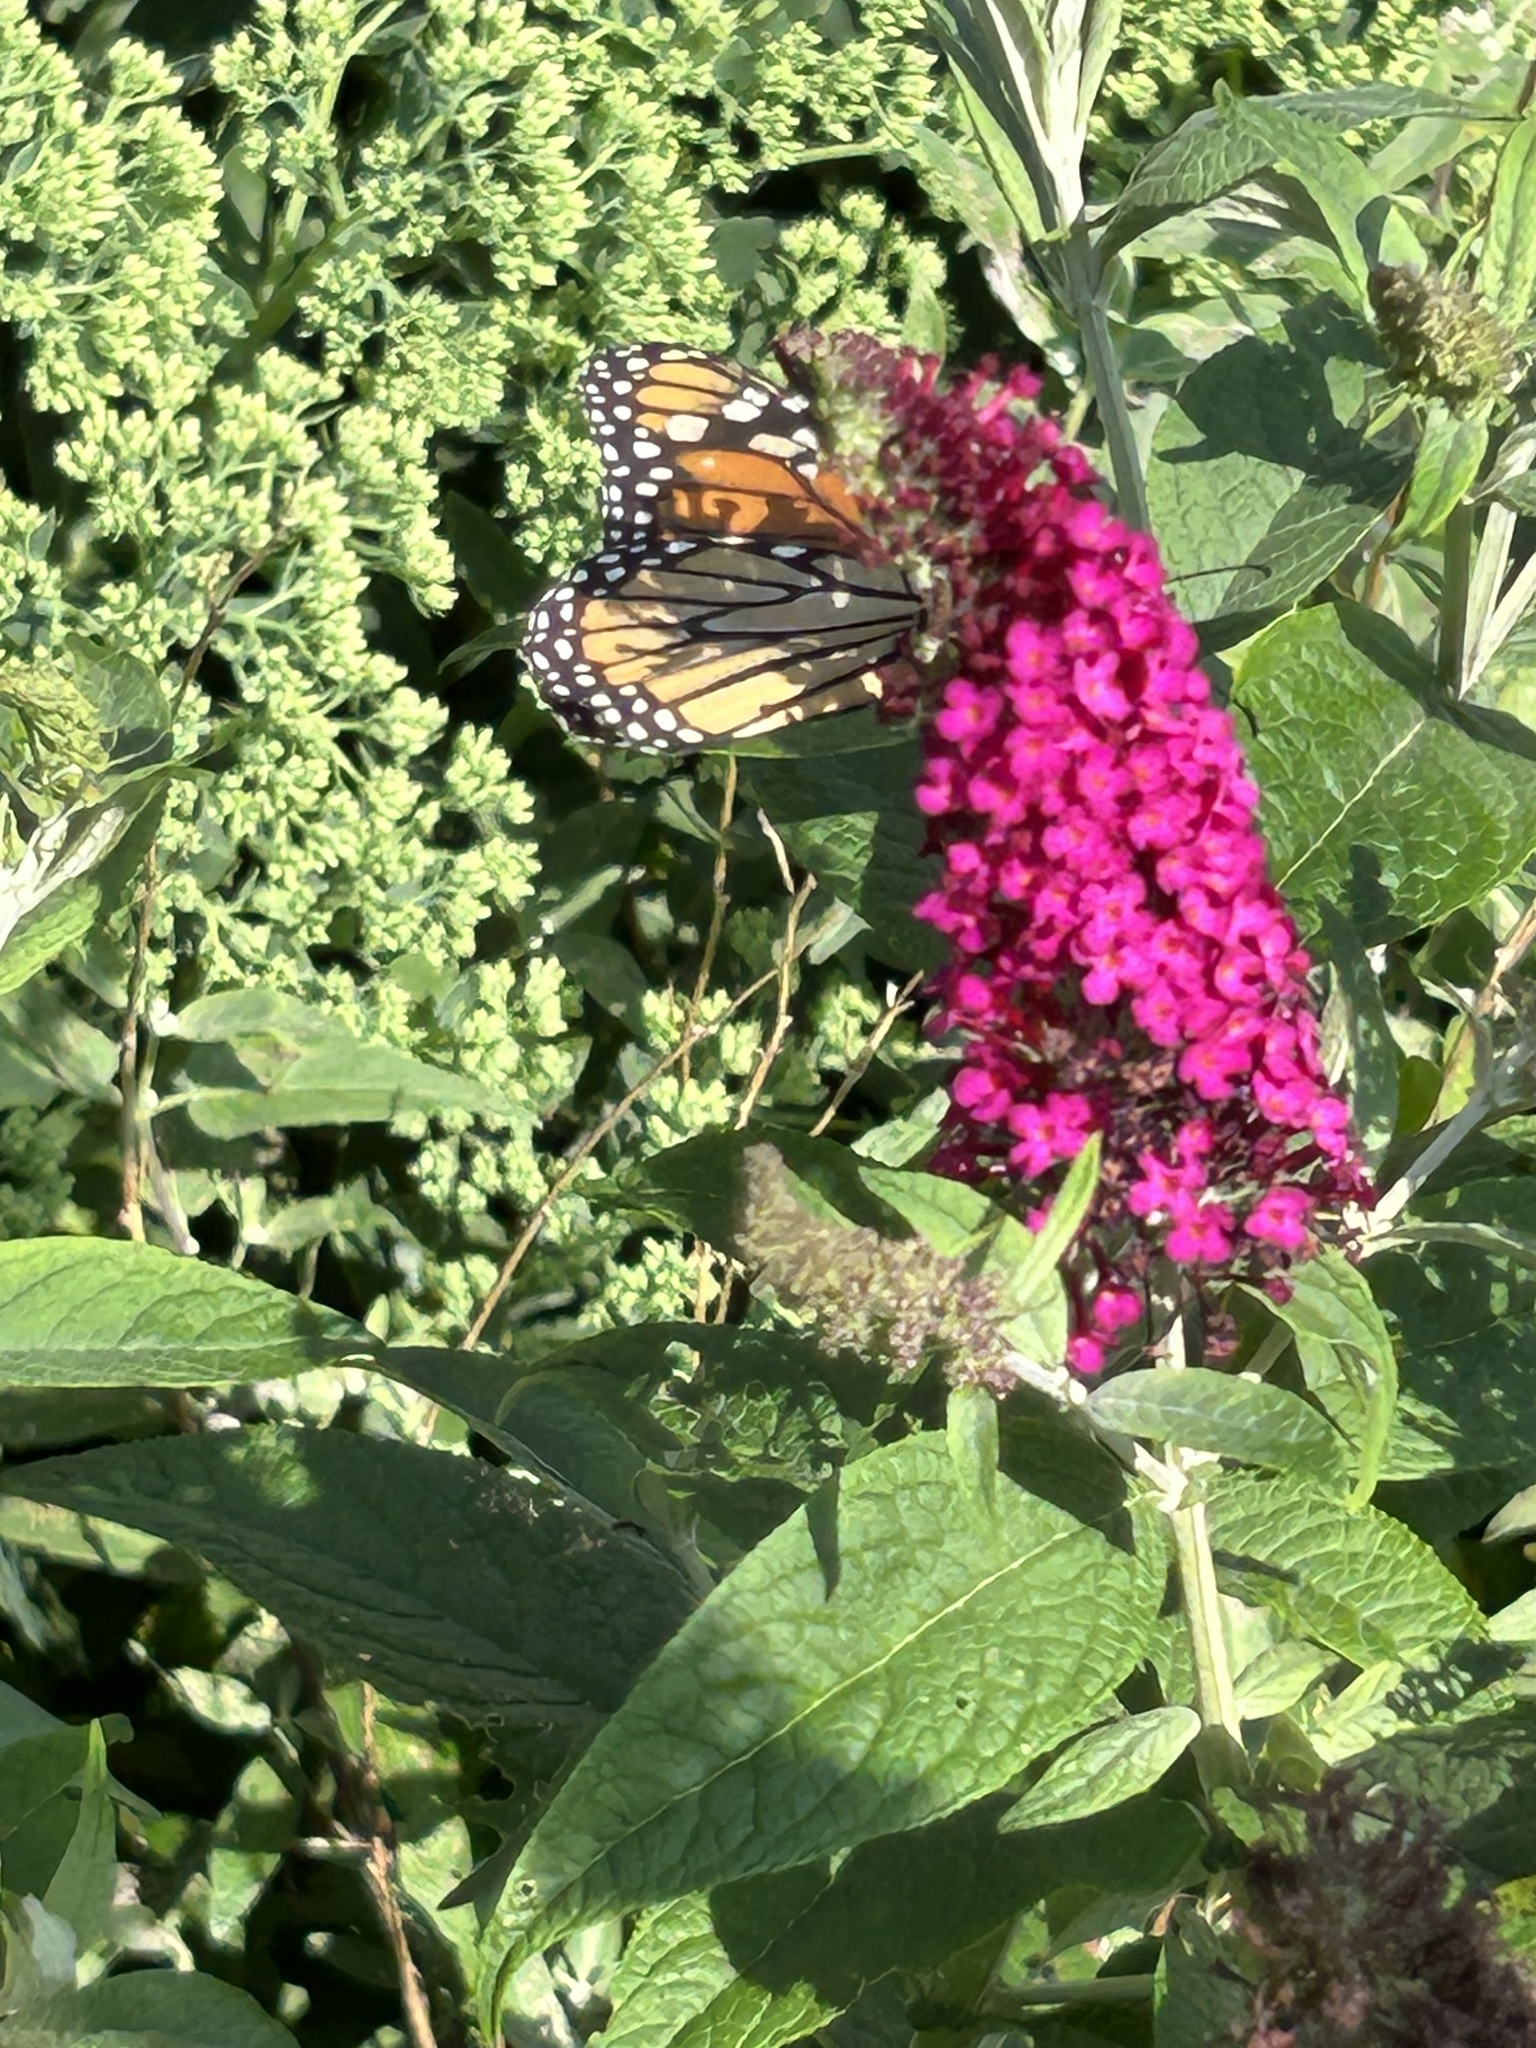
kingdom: Animalia
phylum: Arthropoda
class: Insecta
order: Lepidoptera
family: Nymphalidae
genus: Danaus
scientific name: Danaus plexippus
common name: Monarch
